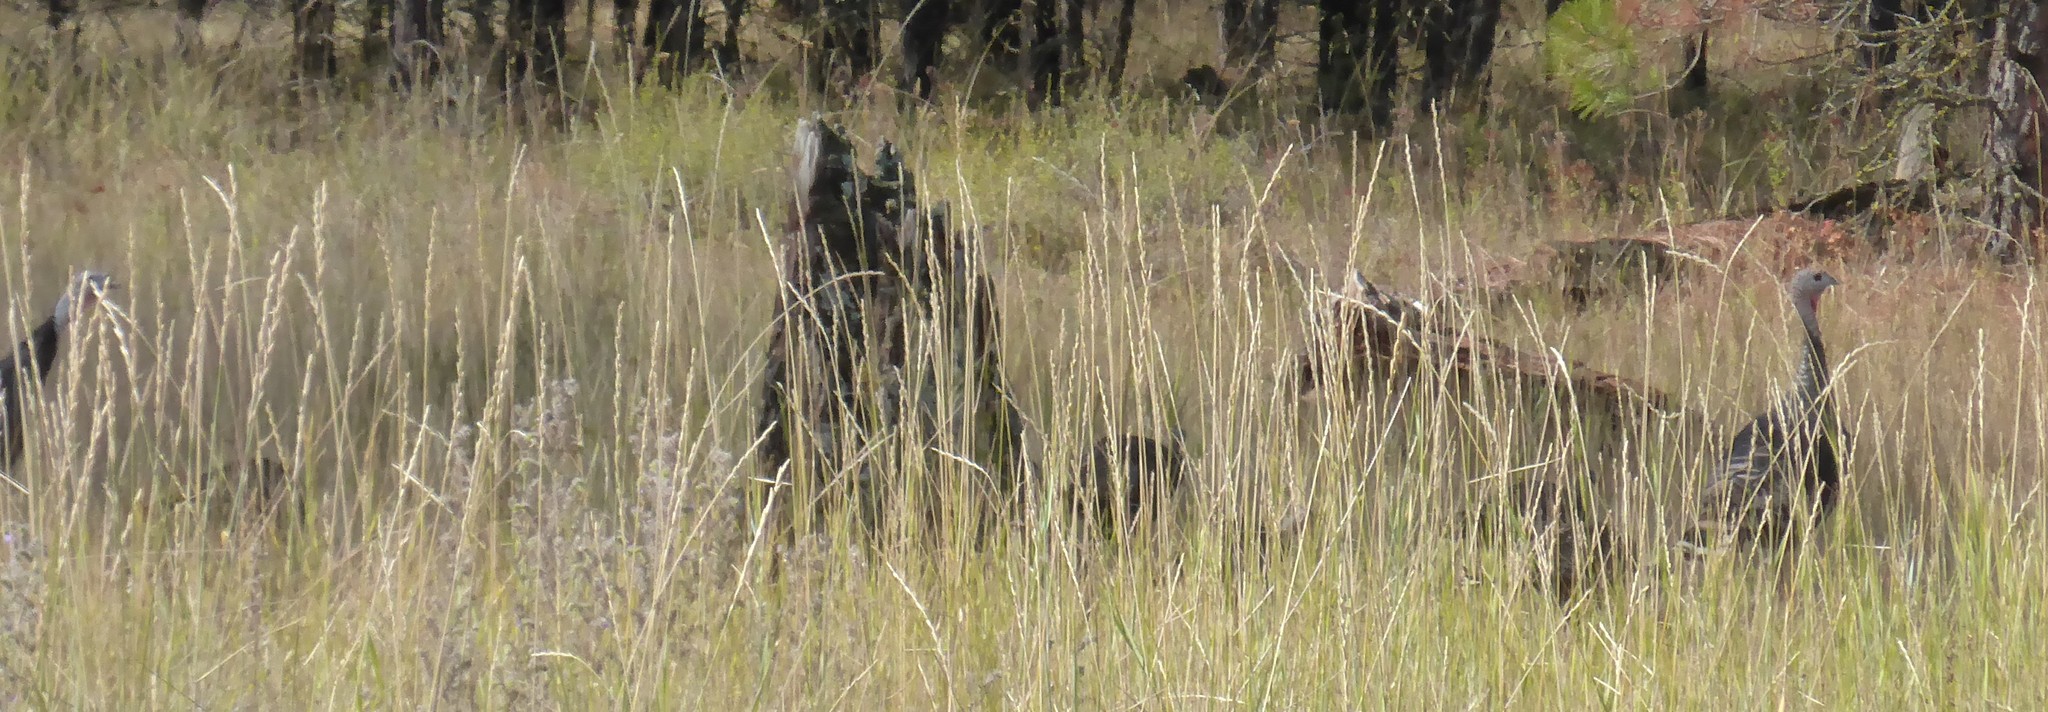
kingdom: Animalia
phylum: Chordata
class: Aves
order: Galliformes
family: Phasianidae
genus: Meleagris
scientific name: Meleagris gallopavo
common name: Wild turkey
